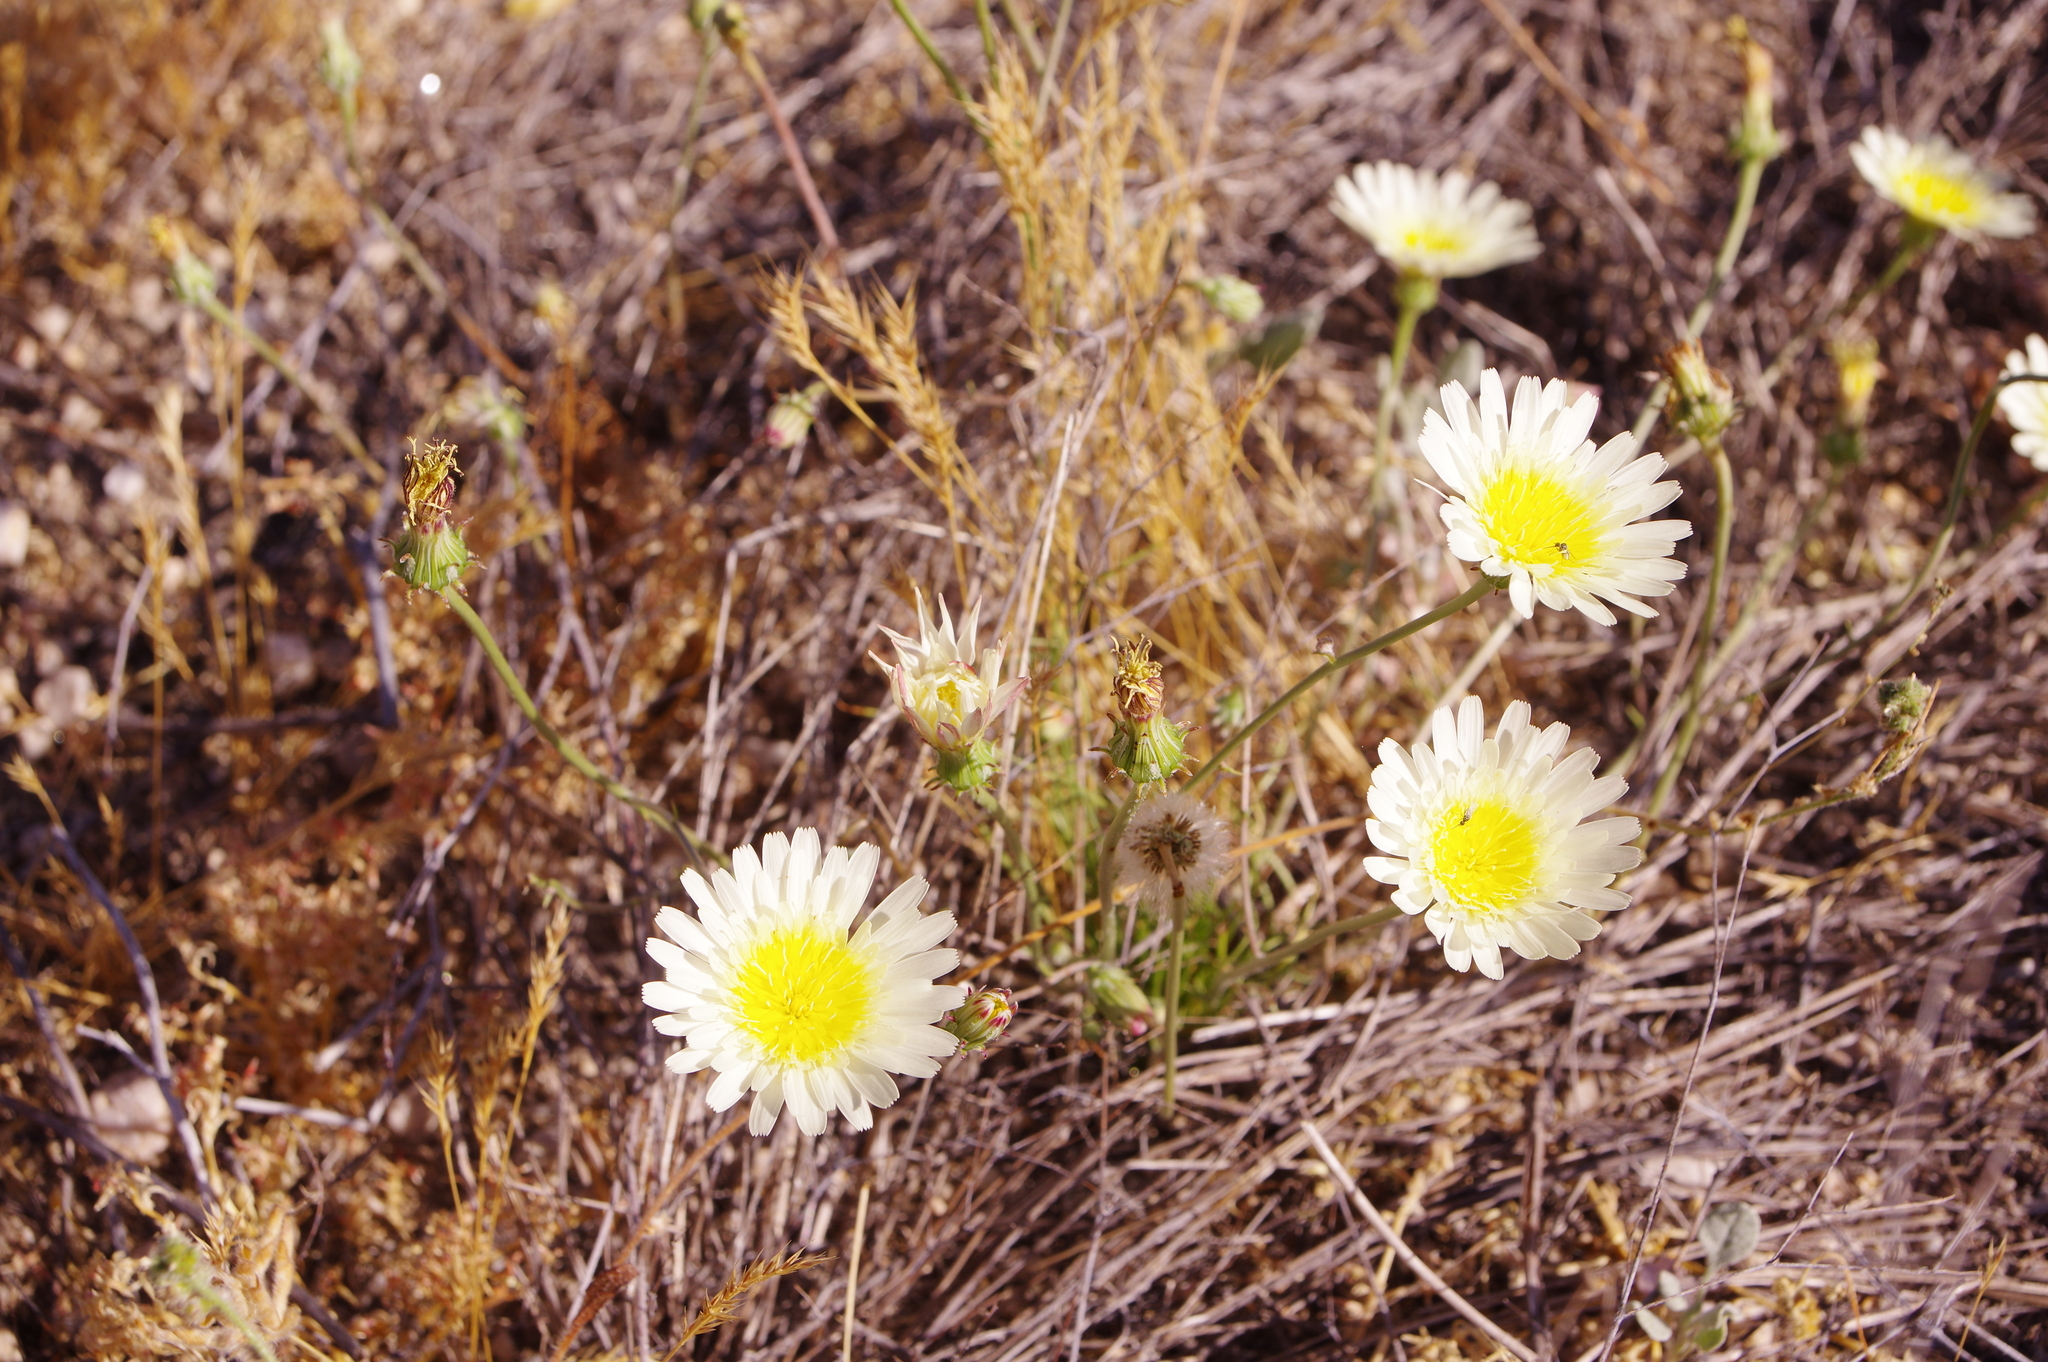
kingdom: Plantae
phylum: Tracheophyta
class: Magnoliopsida
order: Asterales
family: Asteraceae
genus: Malacothrix
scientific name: Malacothrix glabrata
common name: Smooth desert-dandelion
